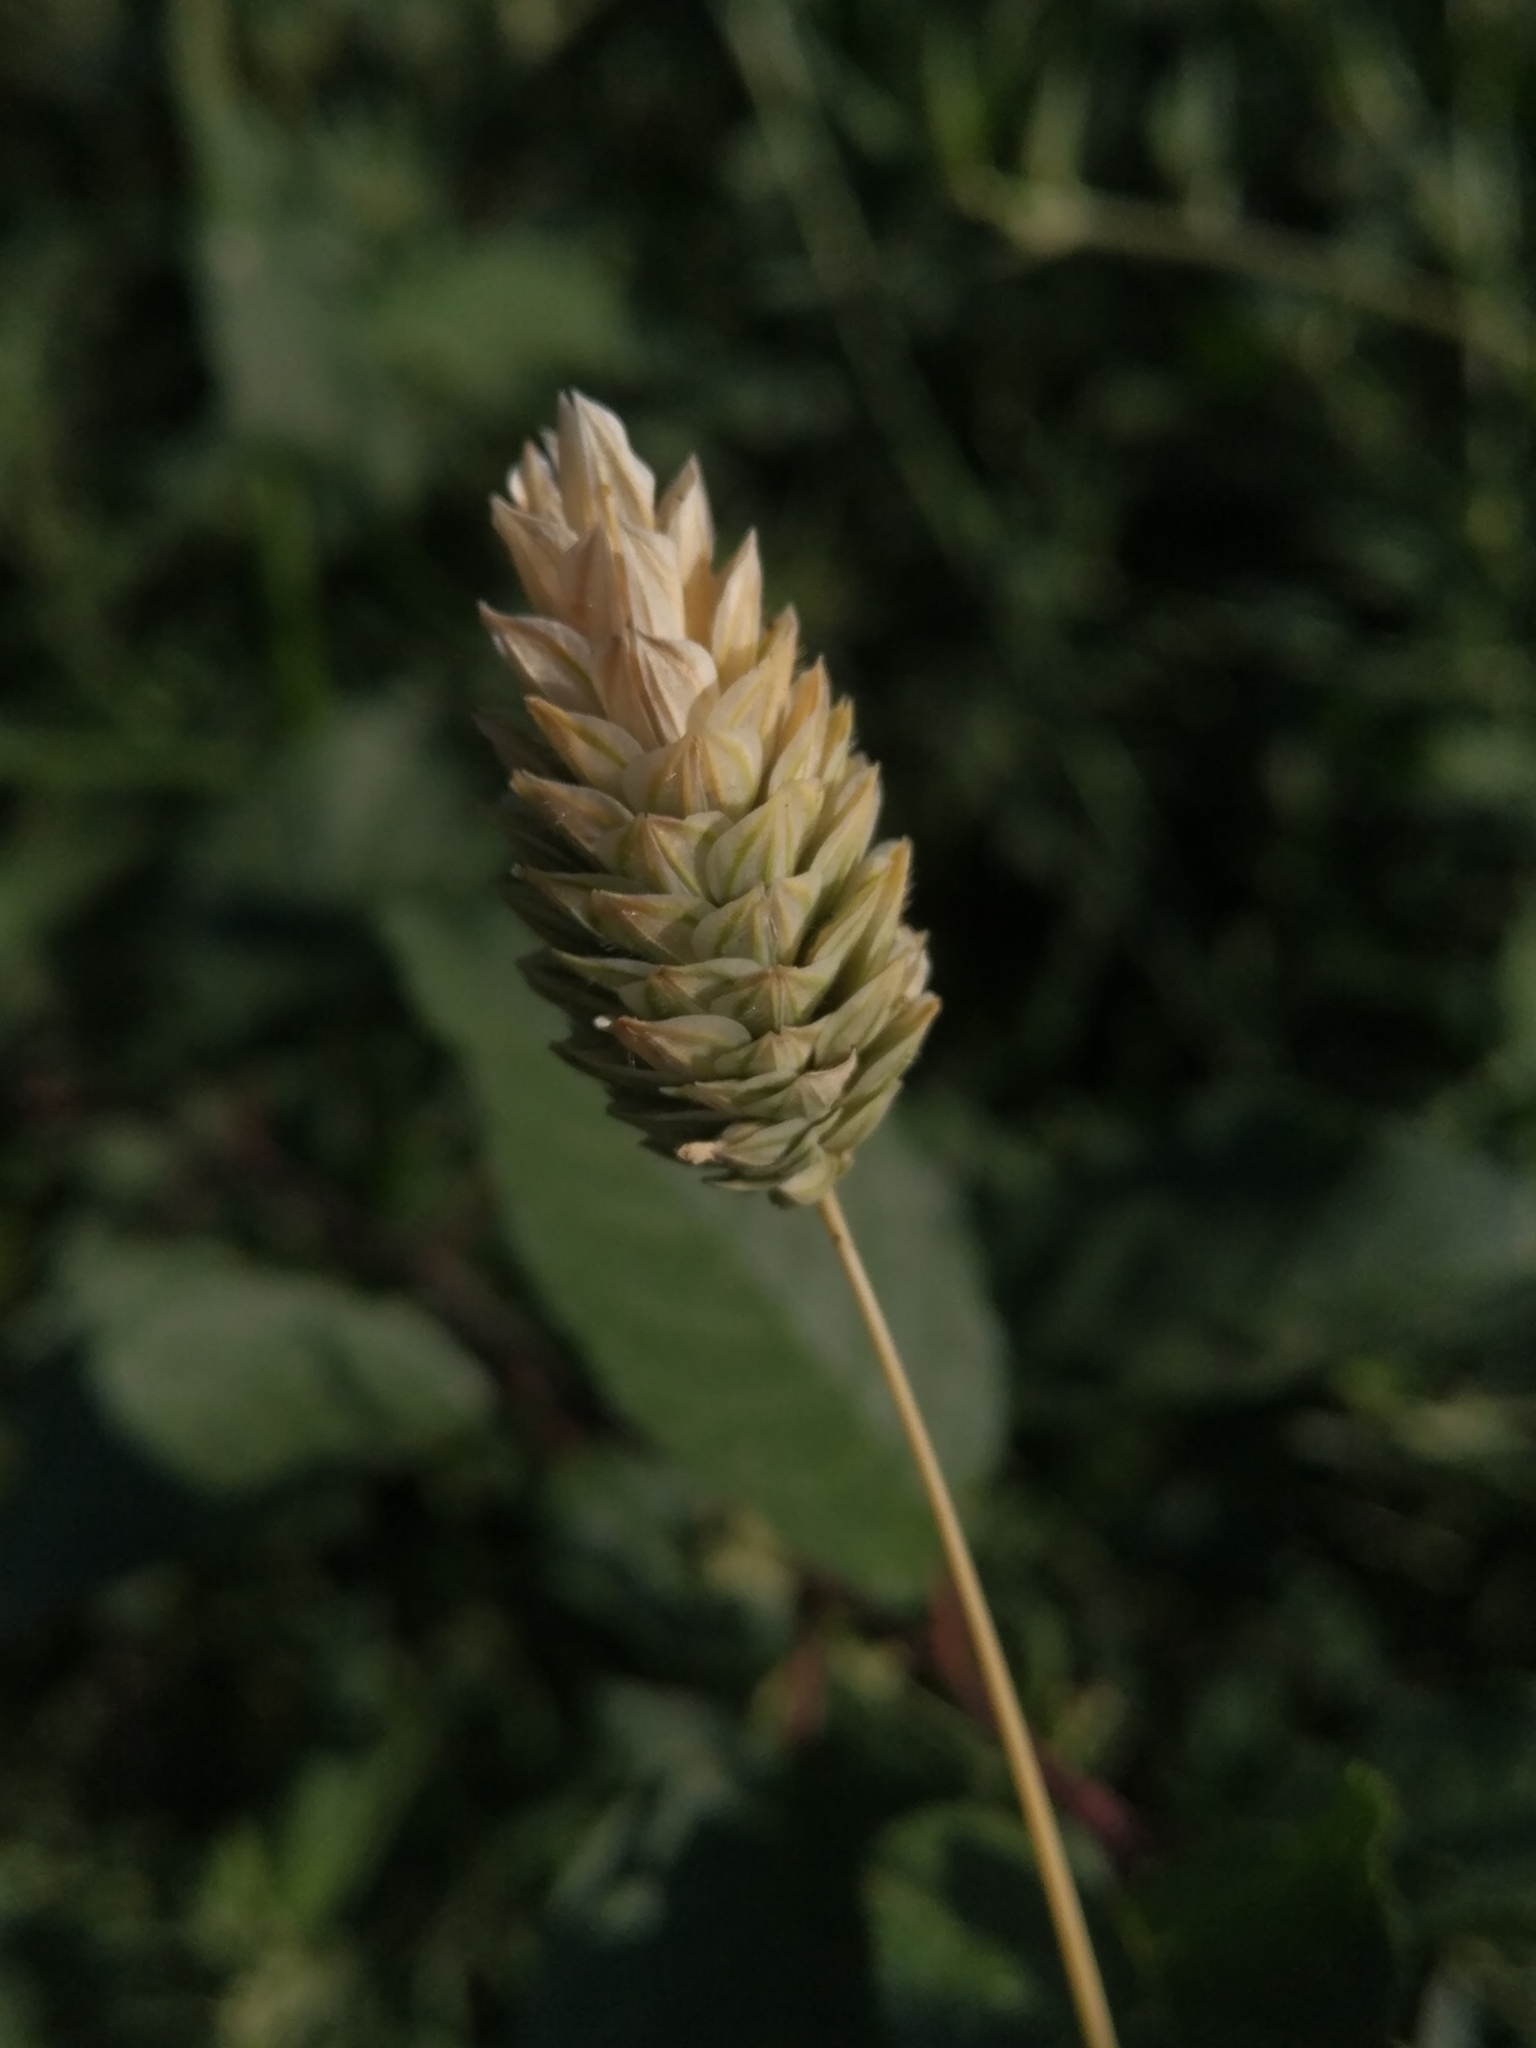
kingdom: Plantae
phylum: Tracheophyta
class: Liliopsida
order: Poales
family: Poaceae
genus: Phalaris
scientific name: Phalaris canariensis
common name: Annual canarygrass
